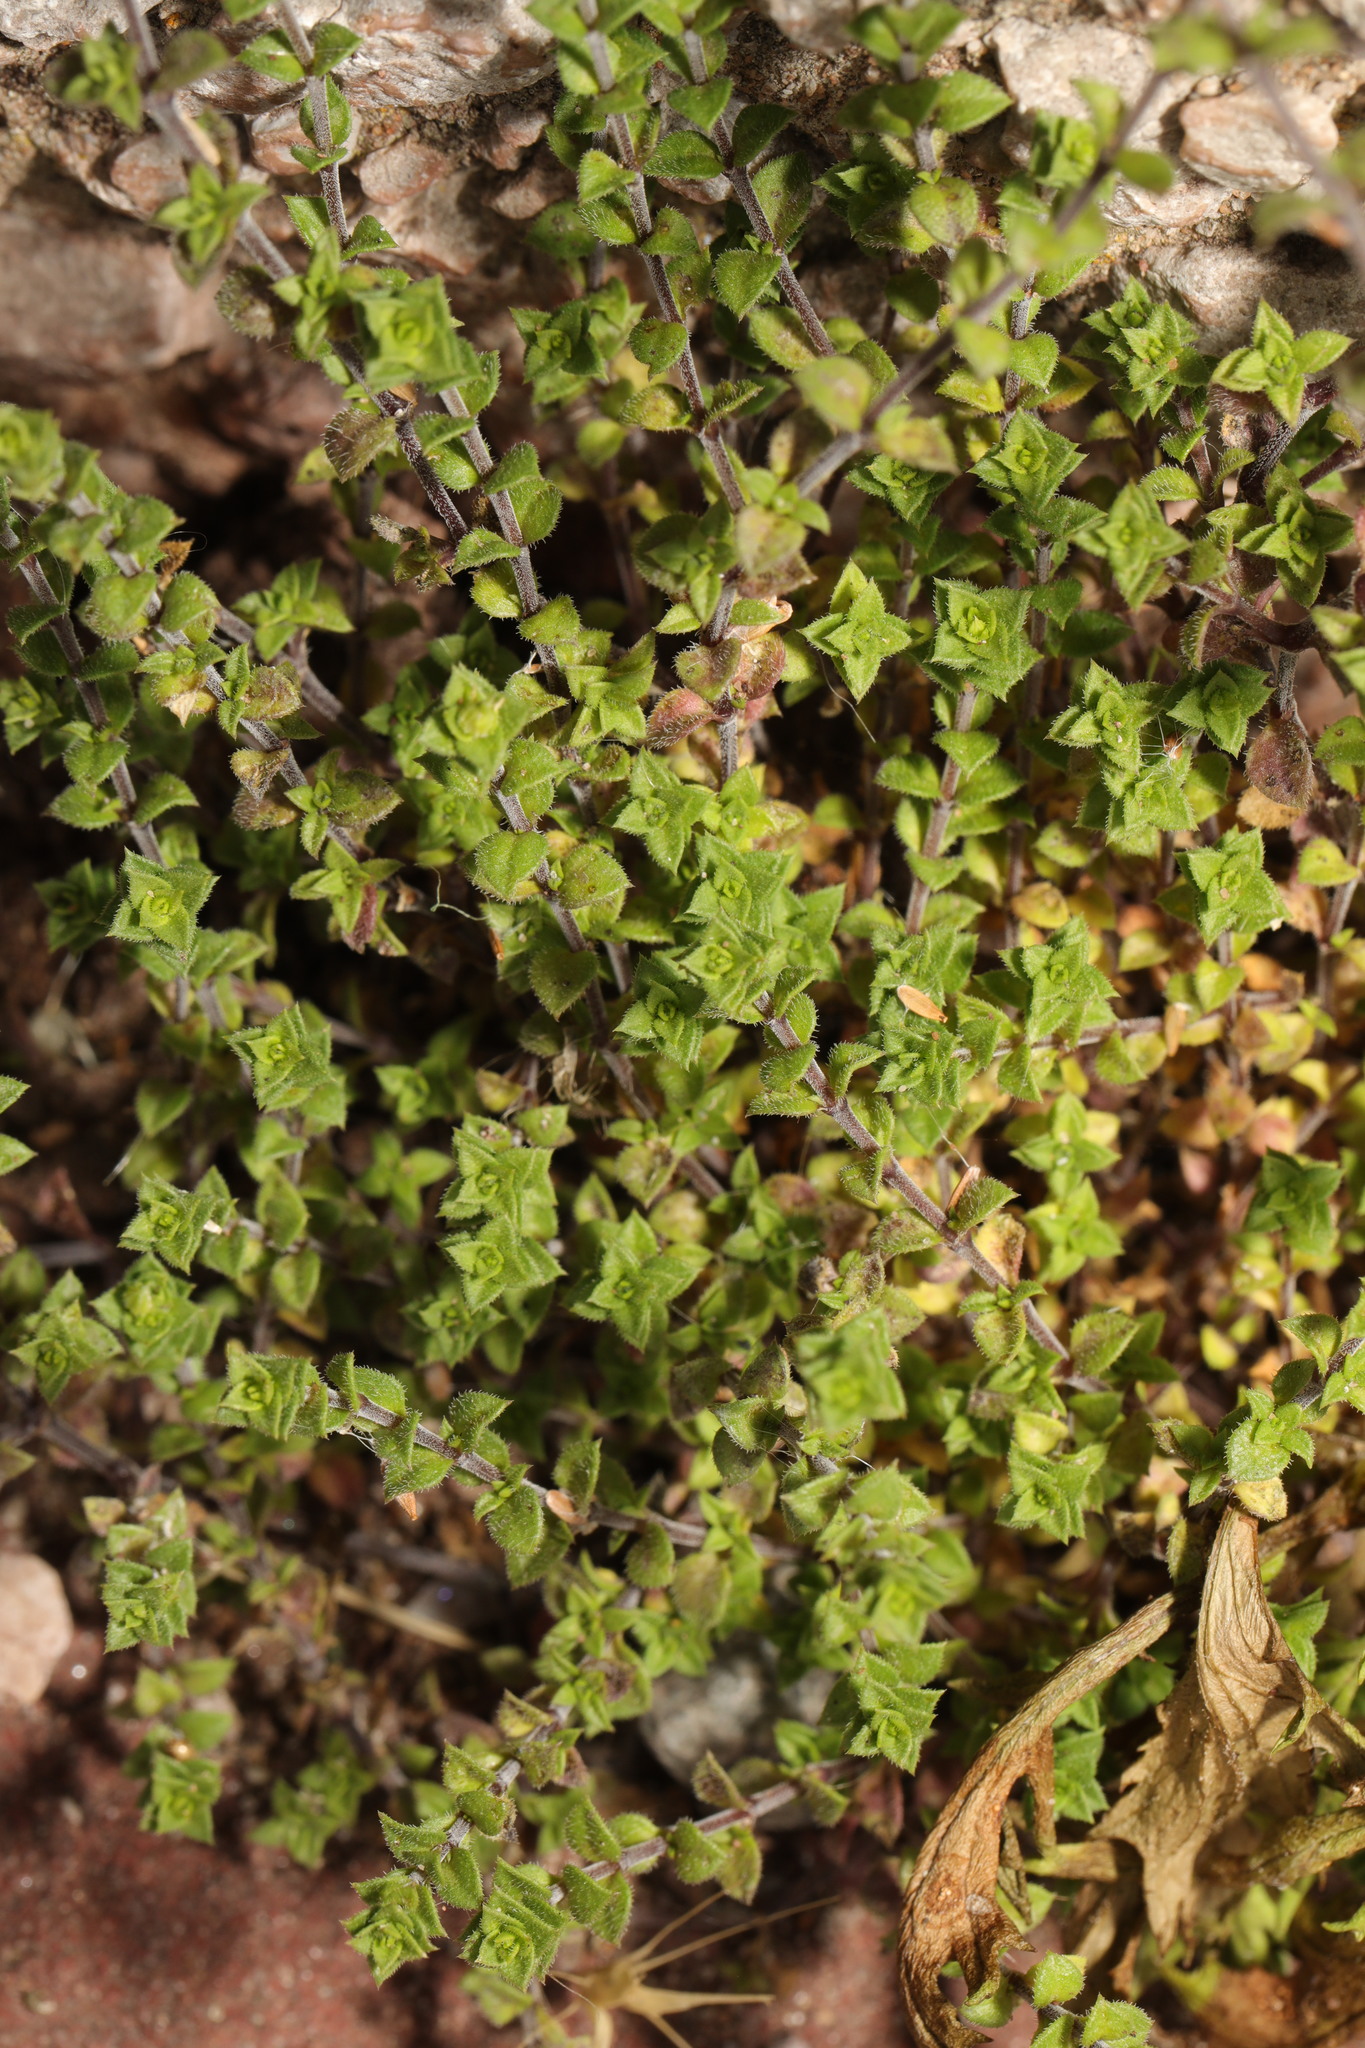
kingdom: Plantae
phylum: Tracheophyta
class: Magnoliopsida
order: Caryophyllales
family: Caryophyllaceae
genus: Arenaria
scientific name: Arenaria serpyllifolia
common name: Thyme-leaved sandwort
